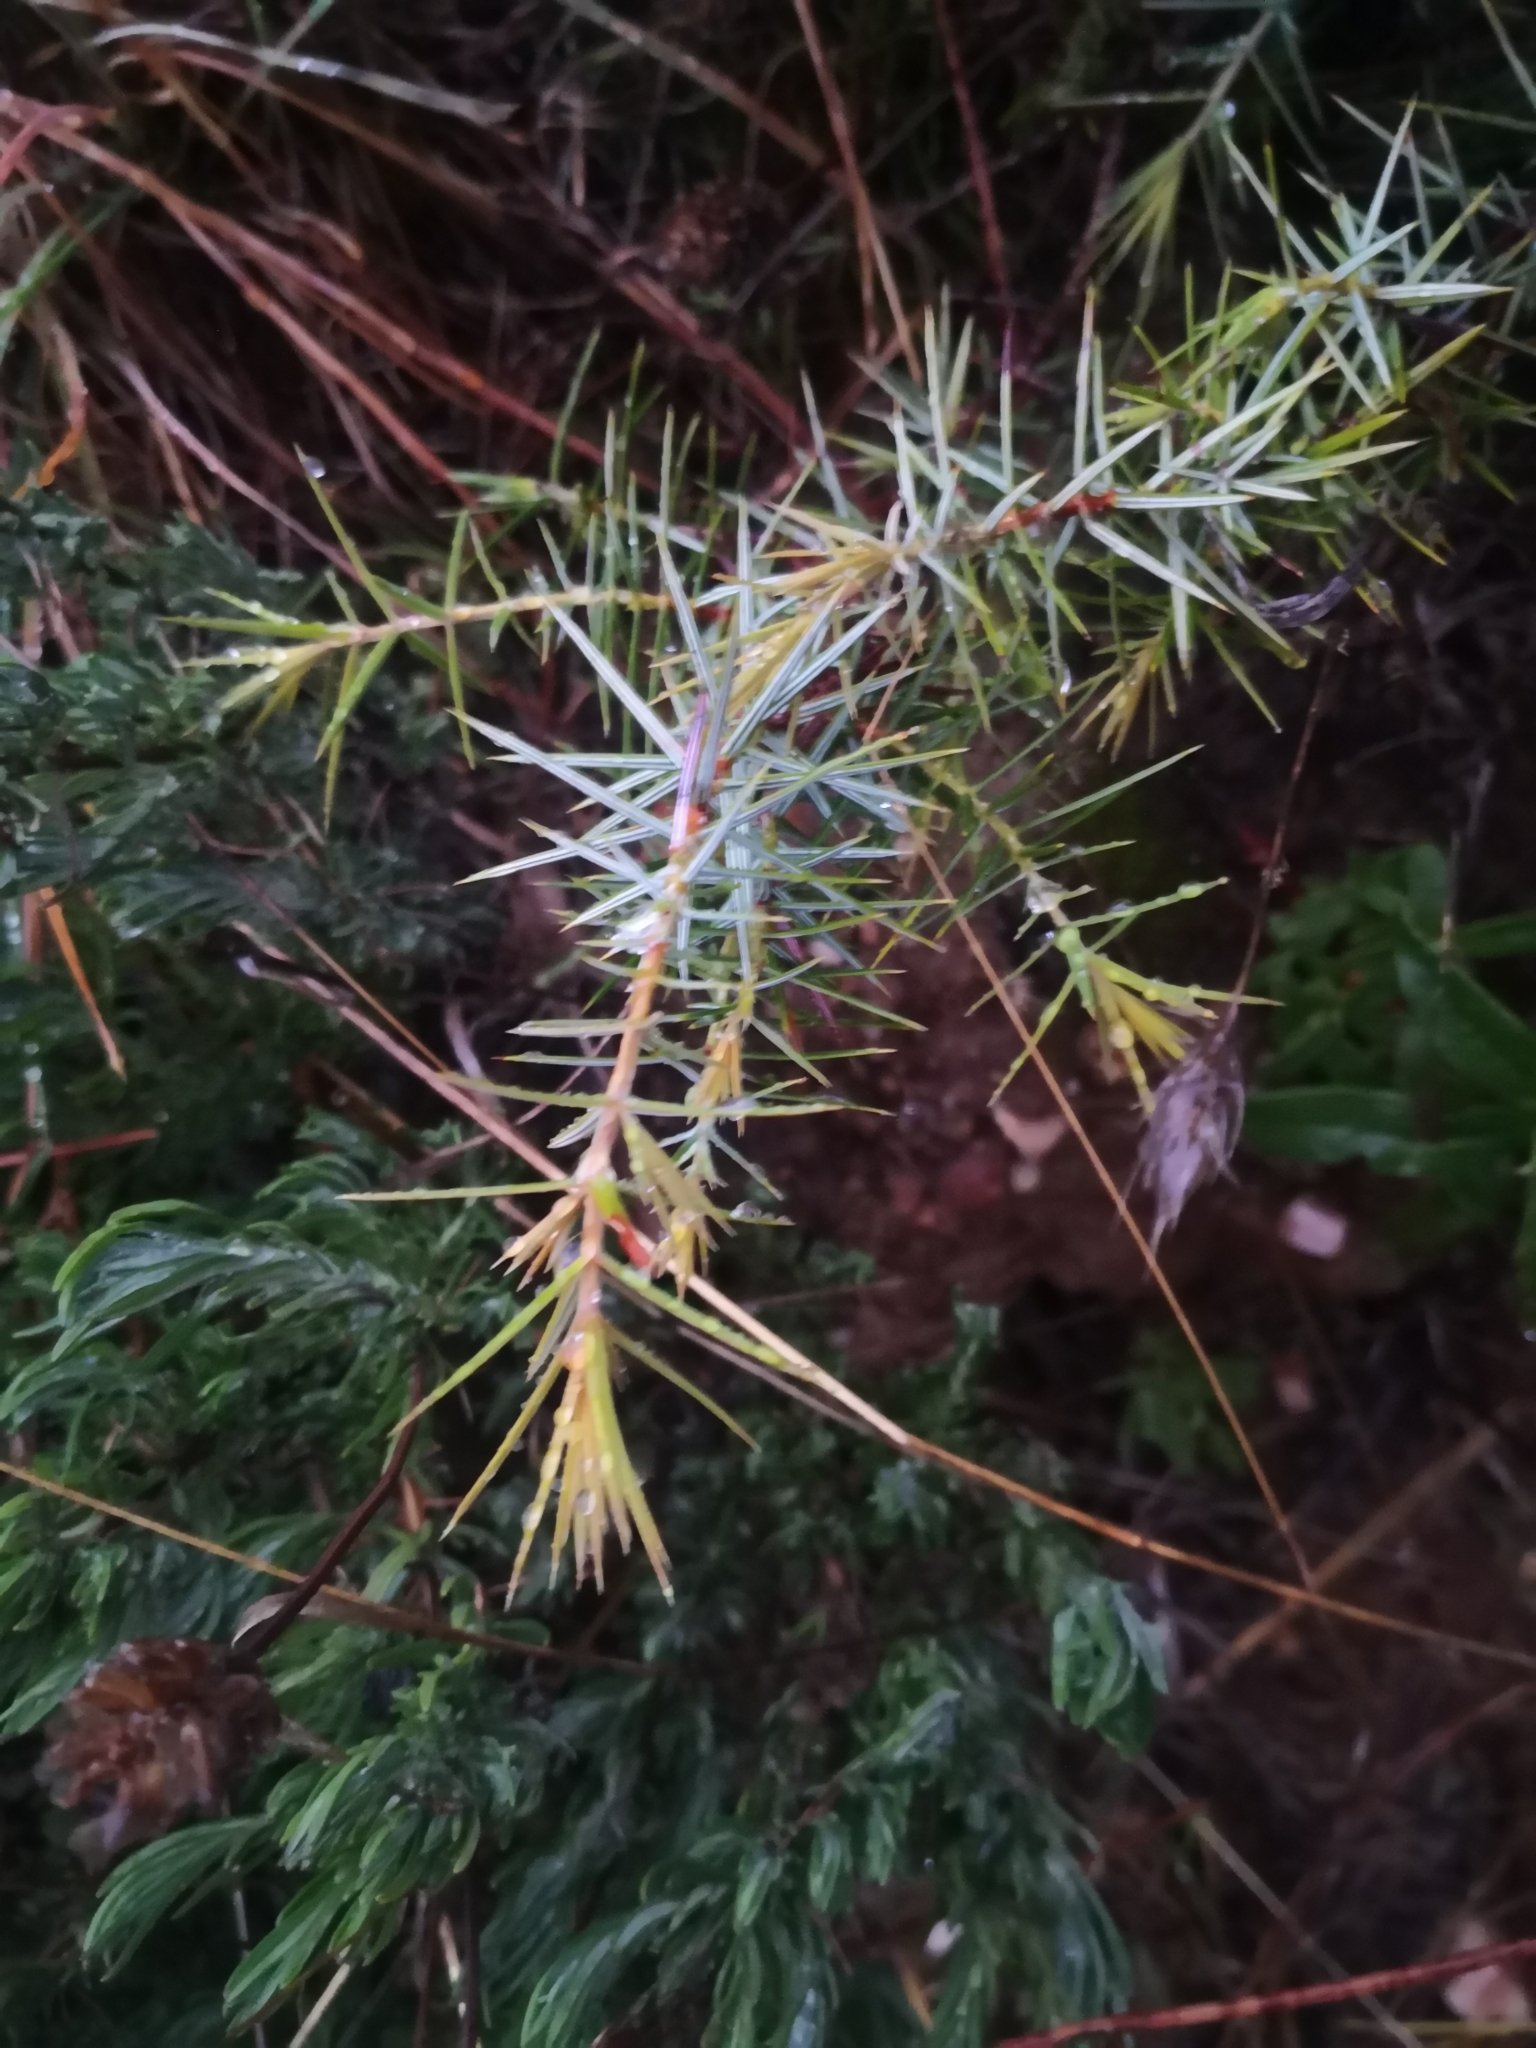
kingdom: Plantae
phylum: Tracheophyta
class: Pinopsida
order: Pinales
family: Cupressaceae
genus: Juniperus
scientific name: Juniperus oxycedrus
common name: Prickly juniper
